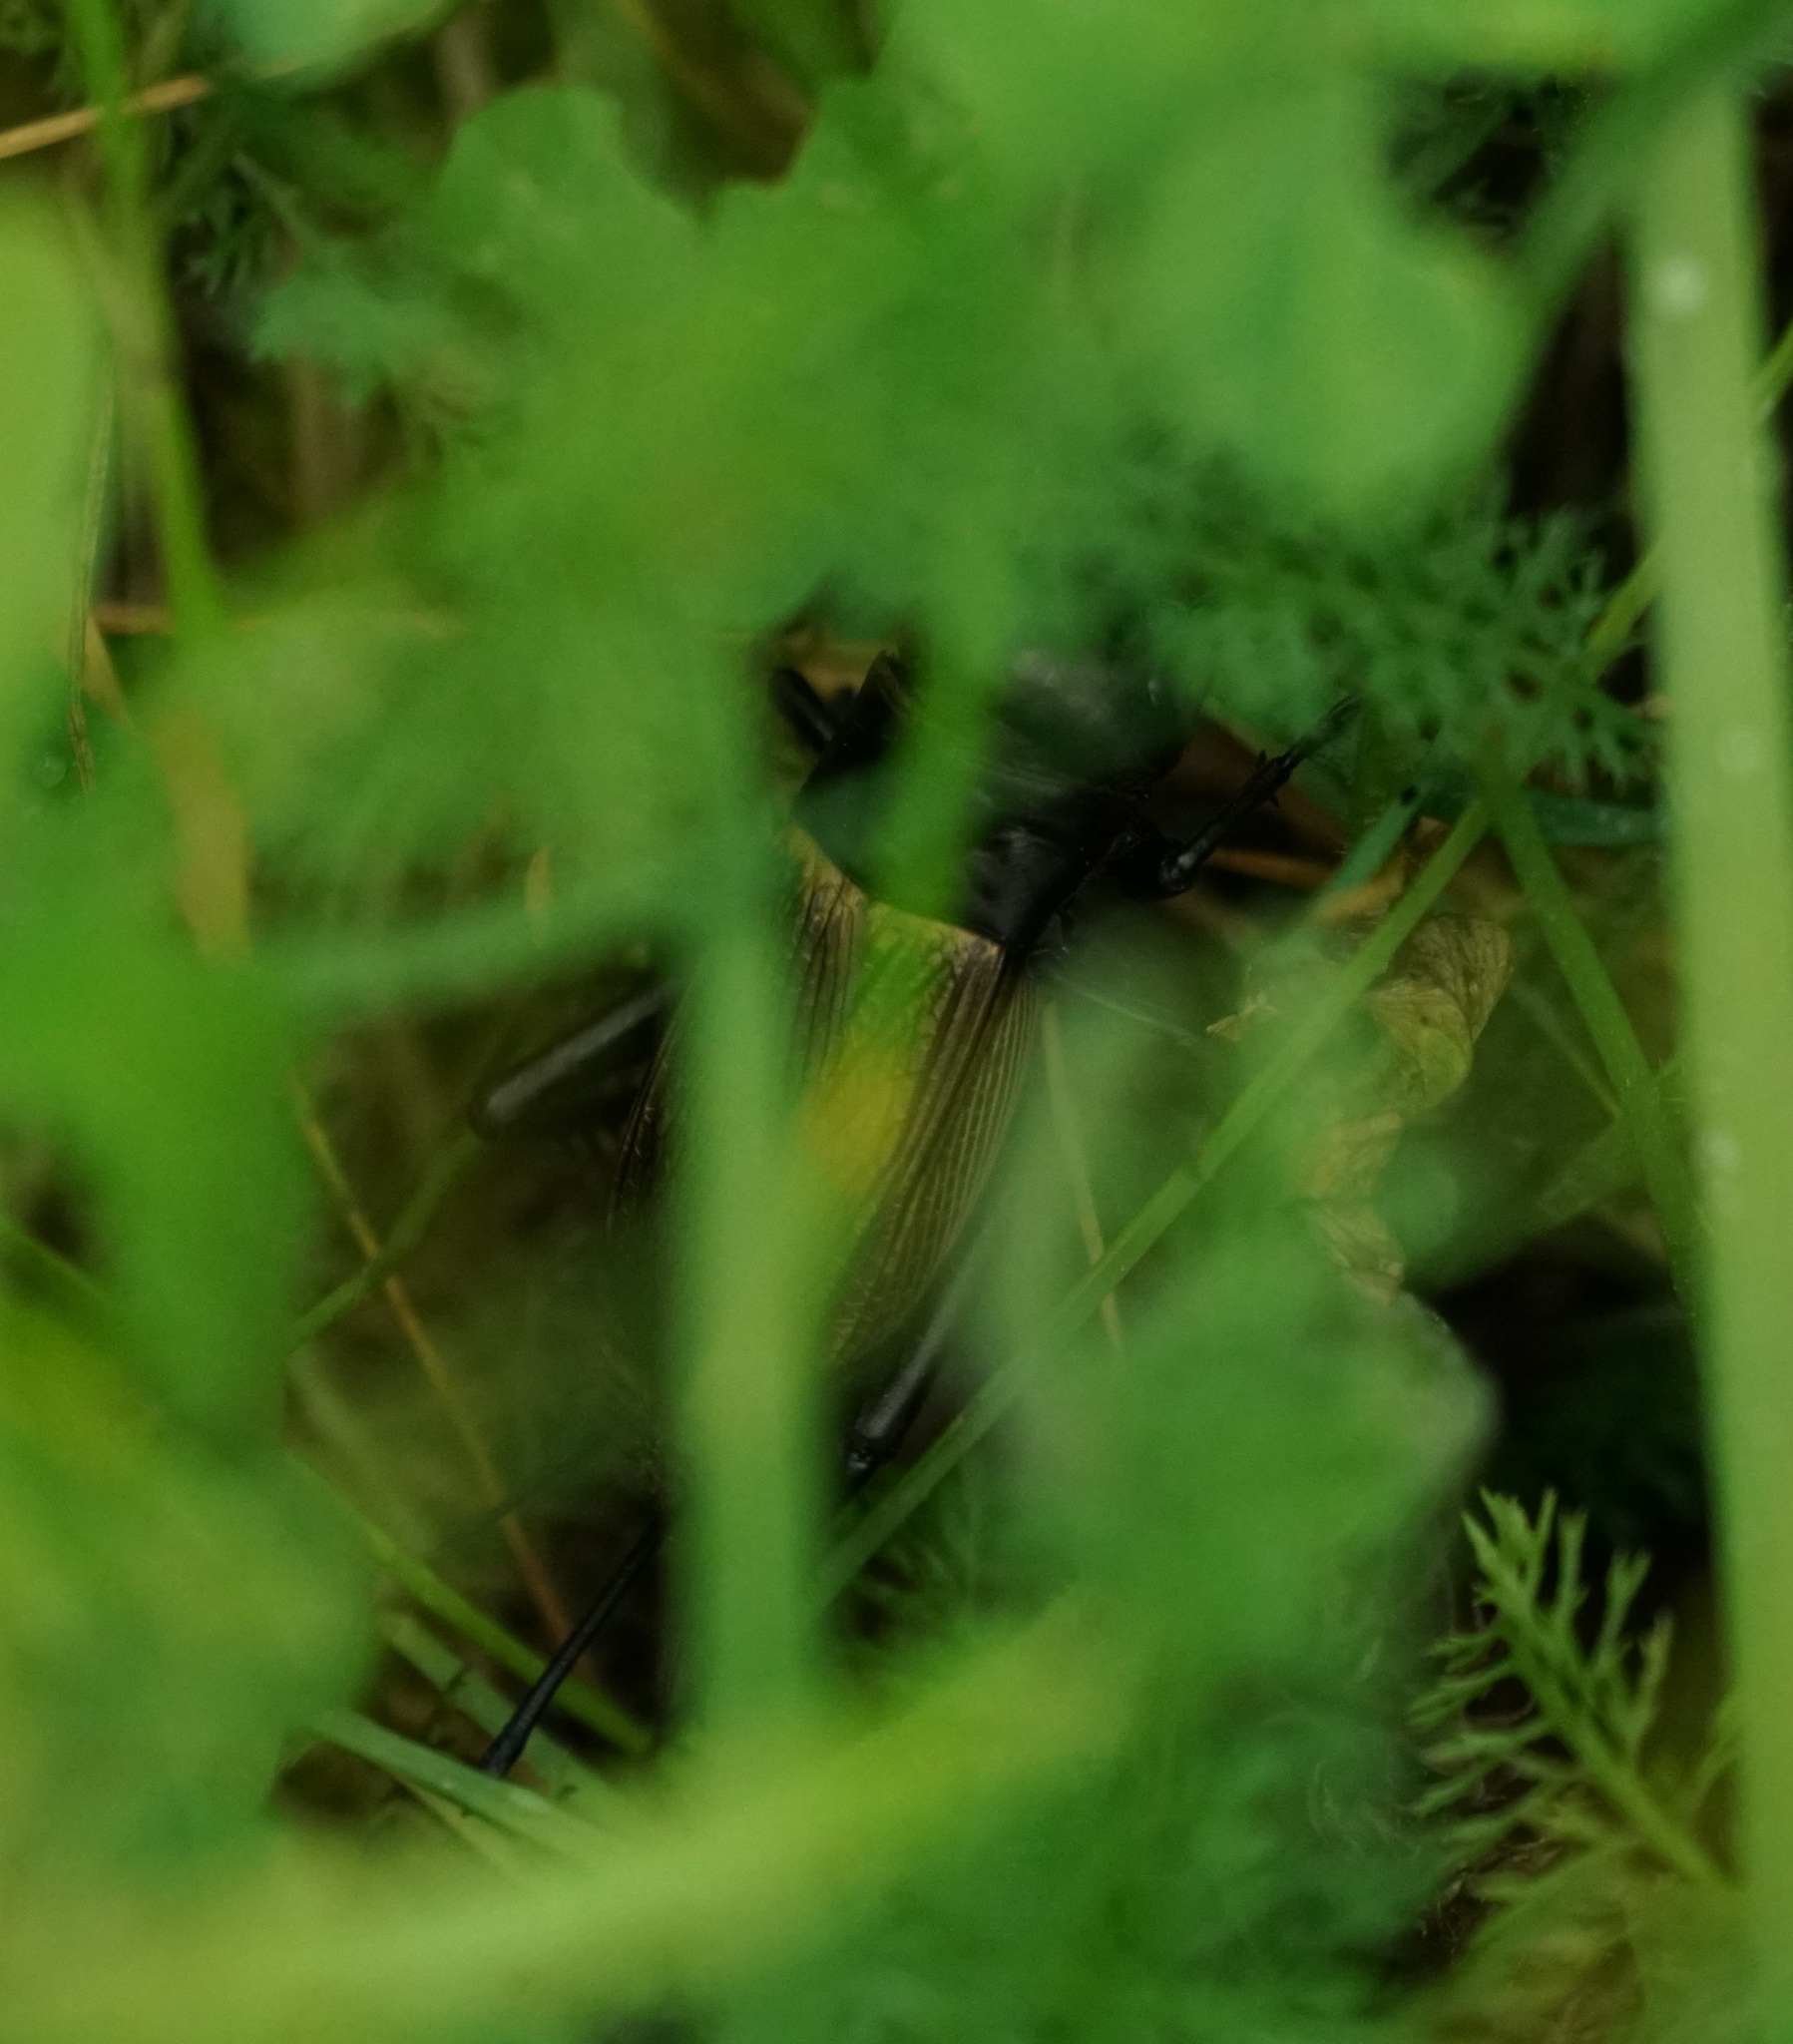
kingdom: Animalia
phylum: Arthropoda
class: Insecta
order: Orthoptera
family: Gryllidae
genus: Gryllus
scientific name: Gryllus campestris
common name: Field cricket
